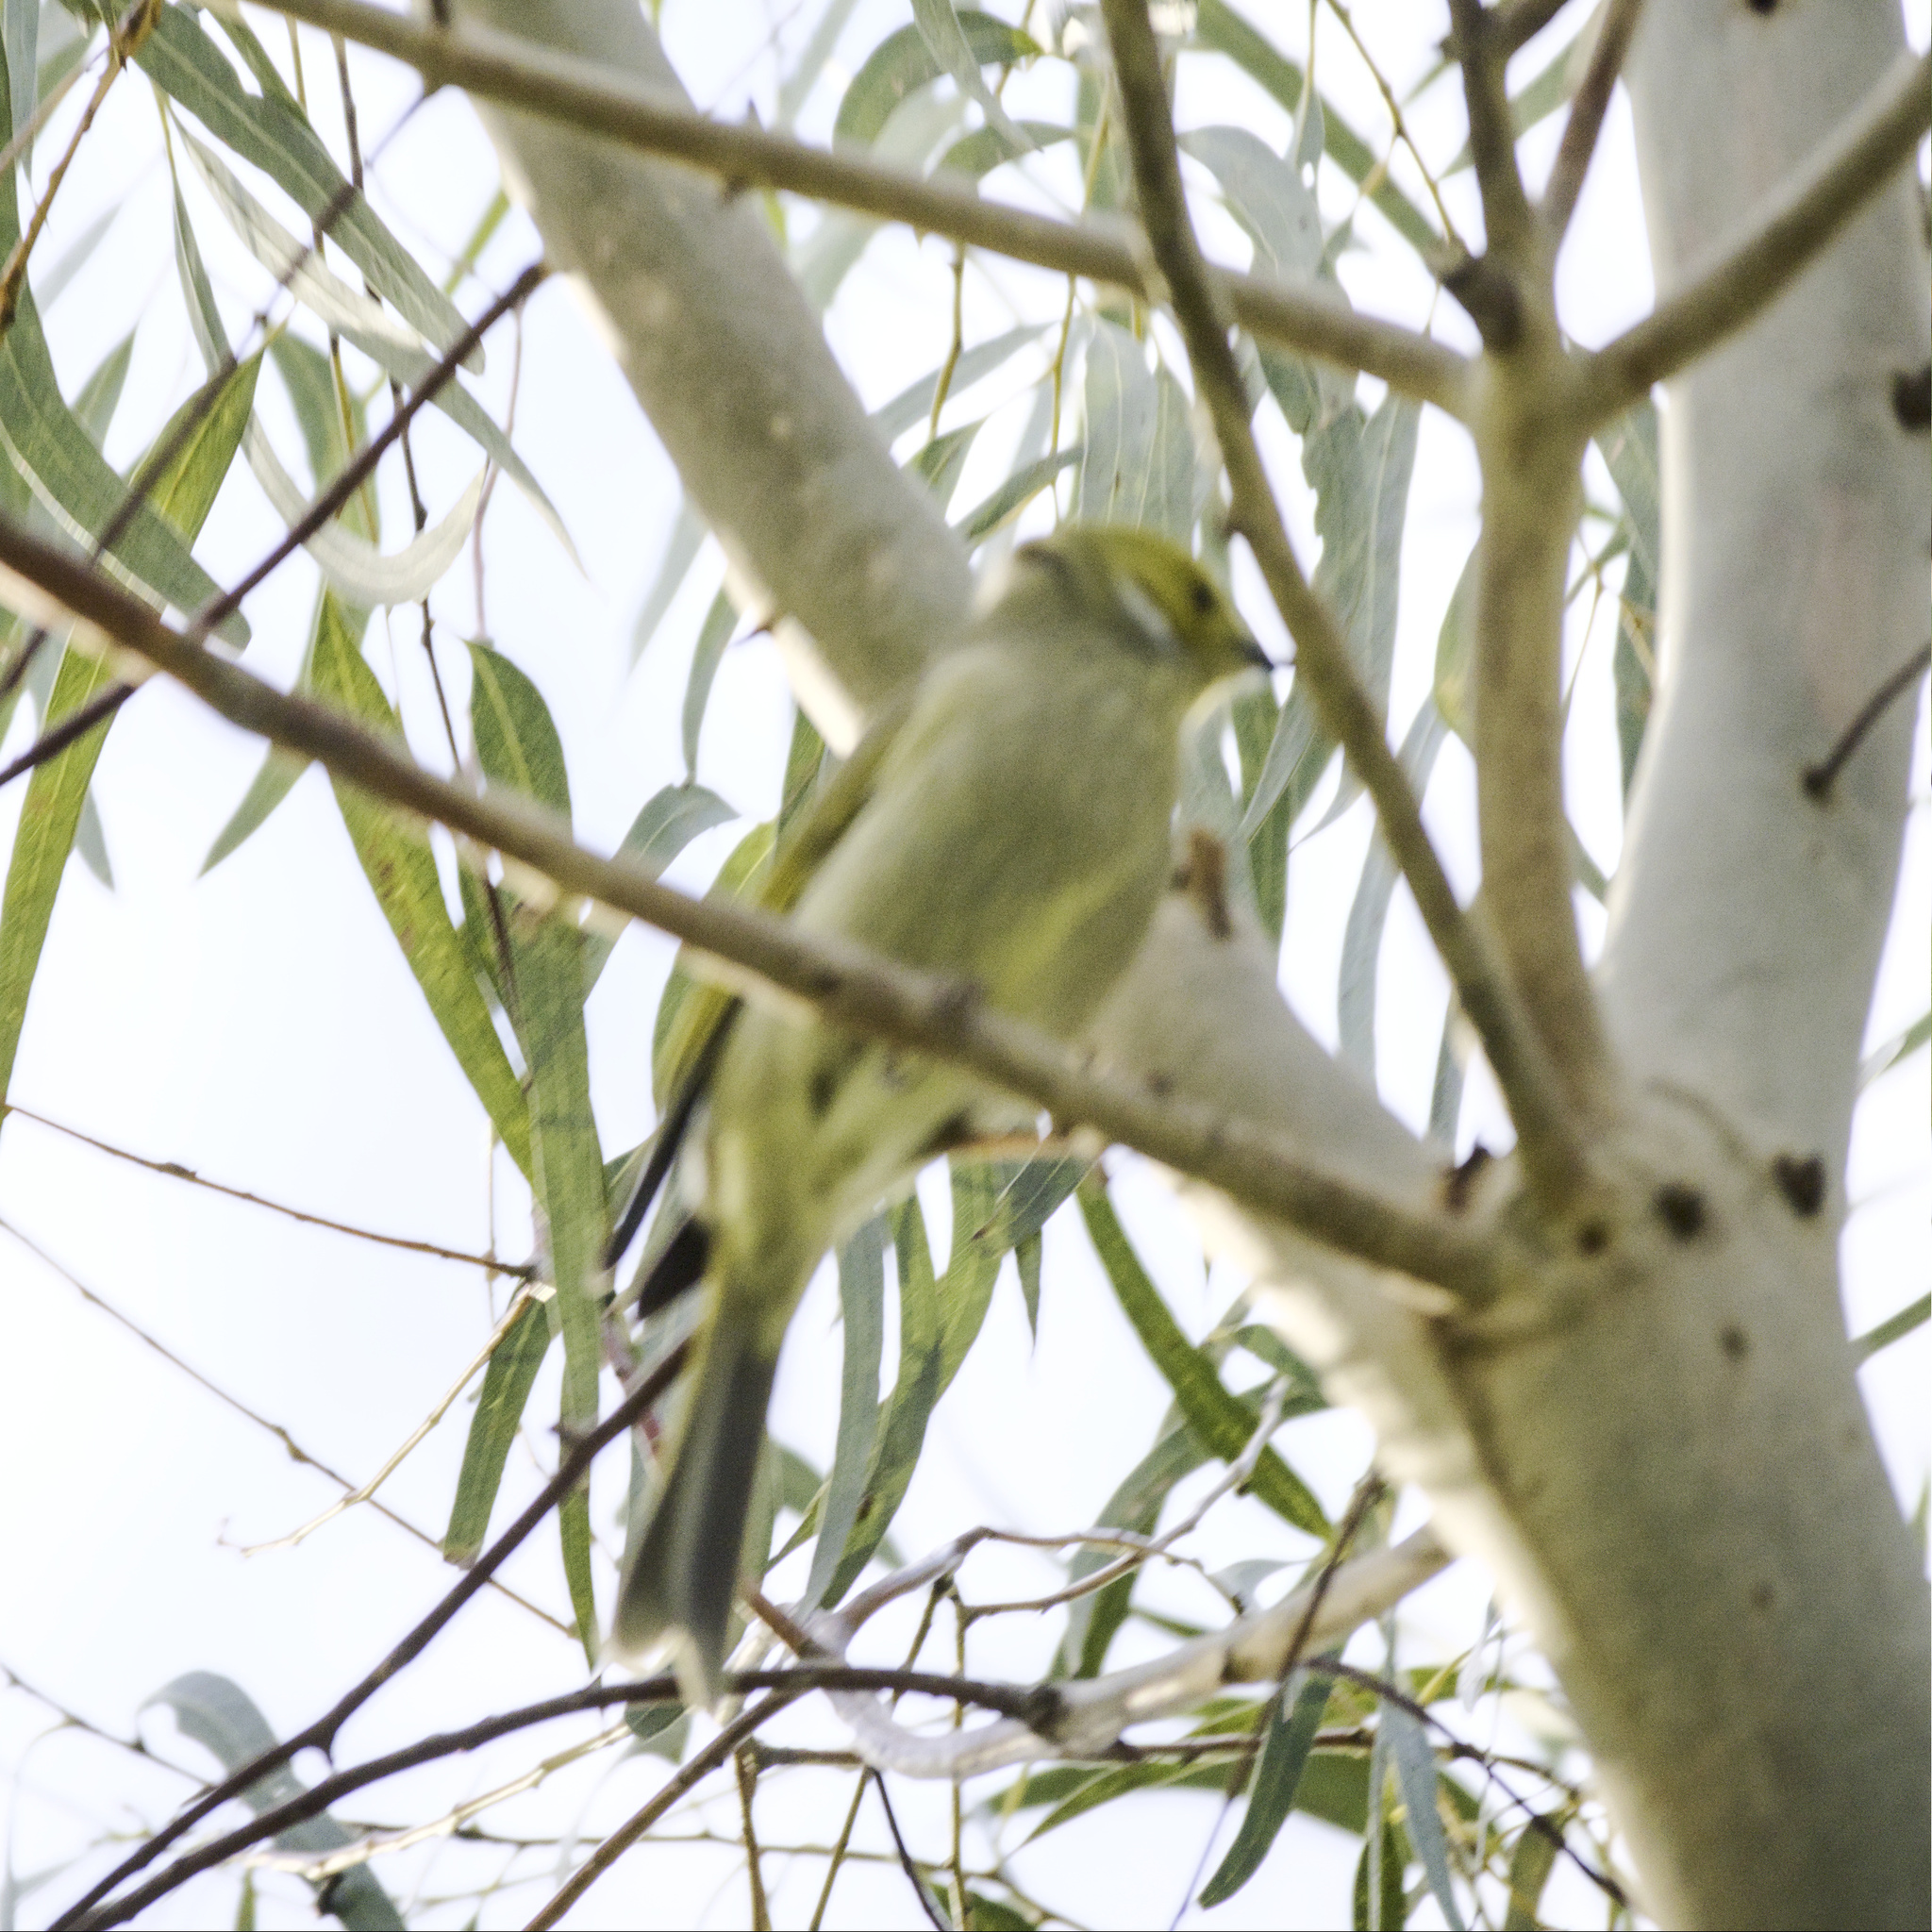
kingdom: Animalia
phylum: Chordata
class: Aves
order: Passeriformes
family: Meliphagidae
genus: Ptilotula
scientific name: Ptilotula penicillata
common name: White-plumed honeyeater
